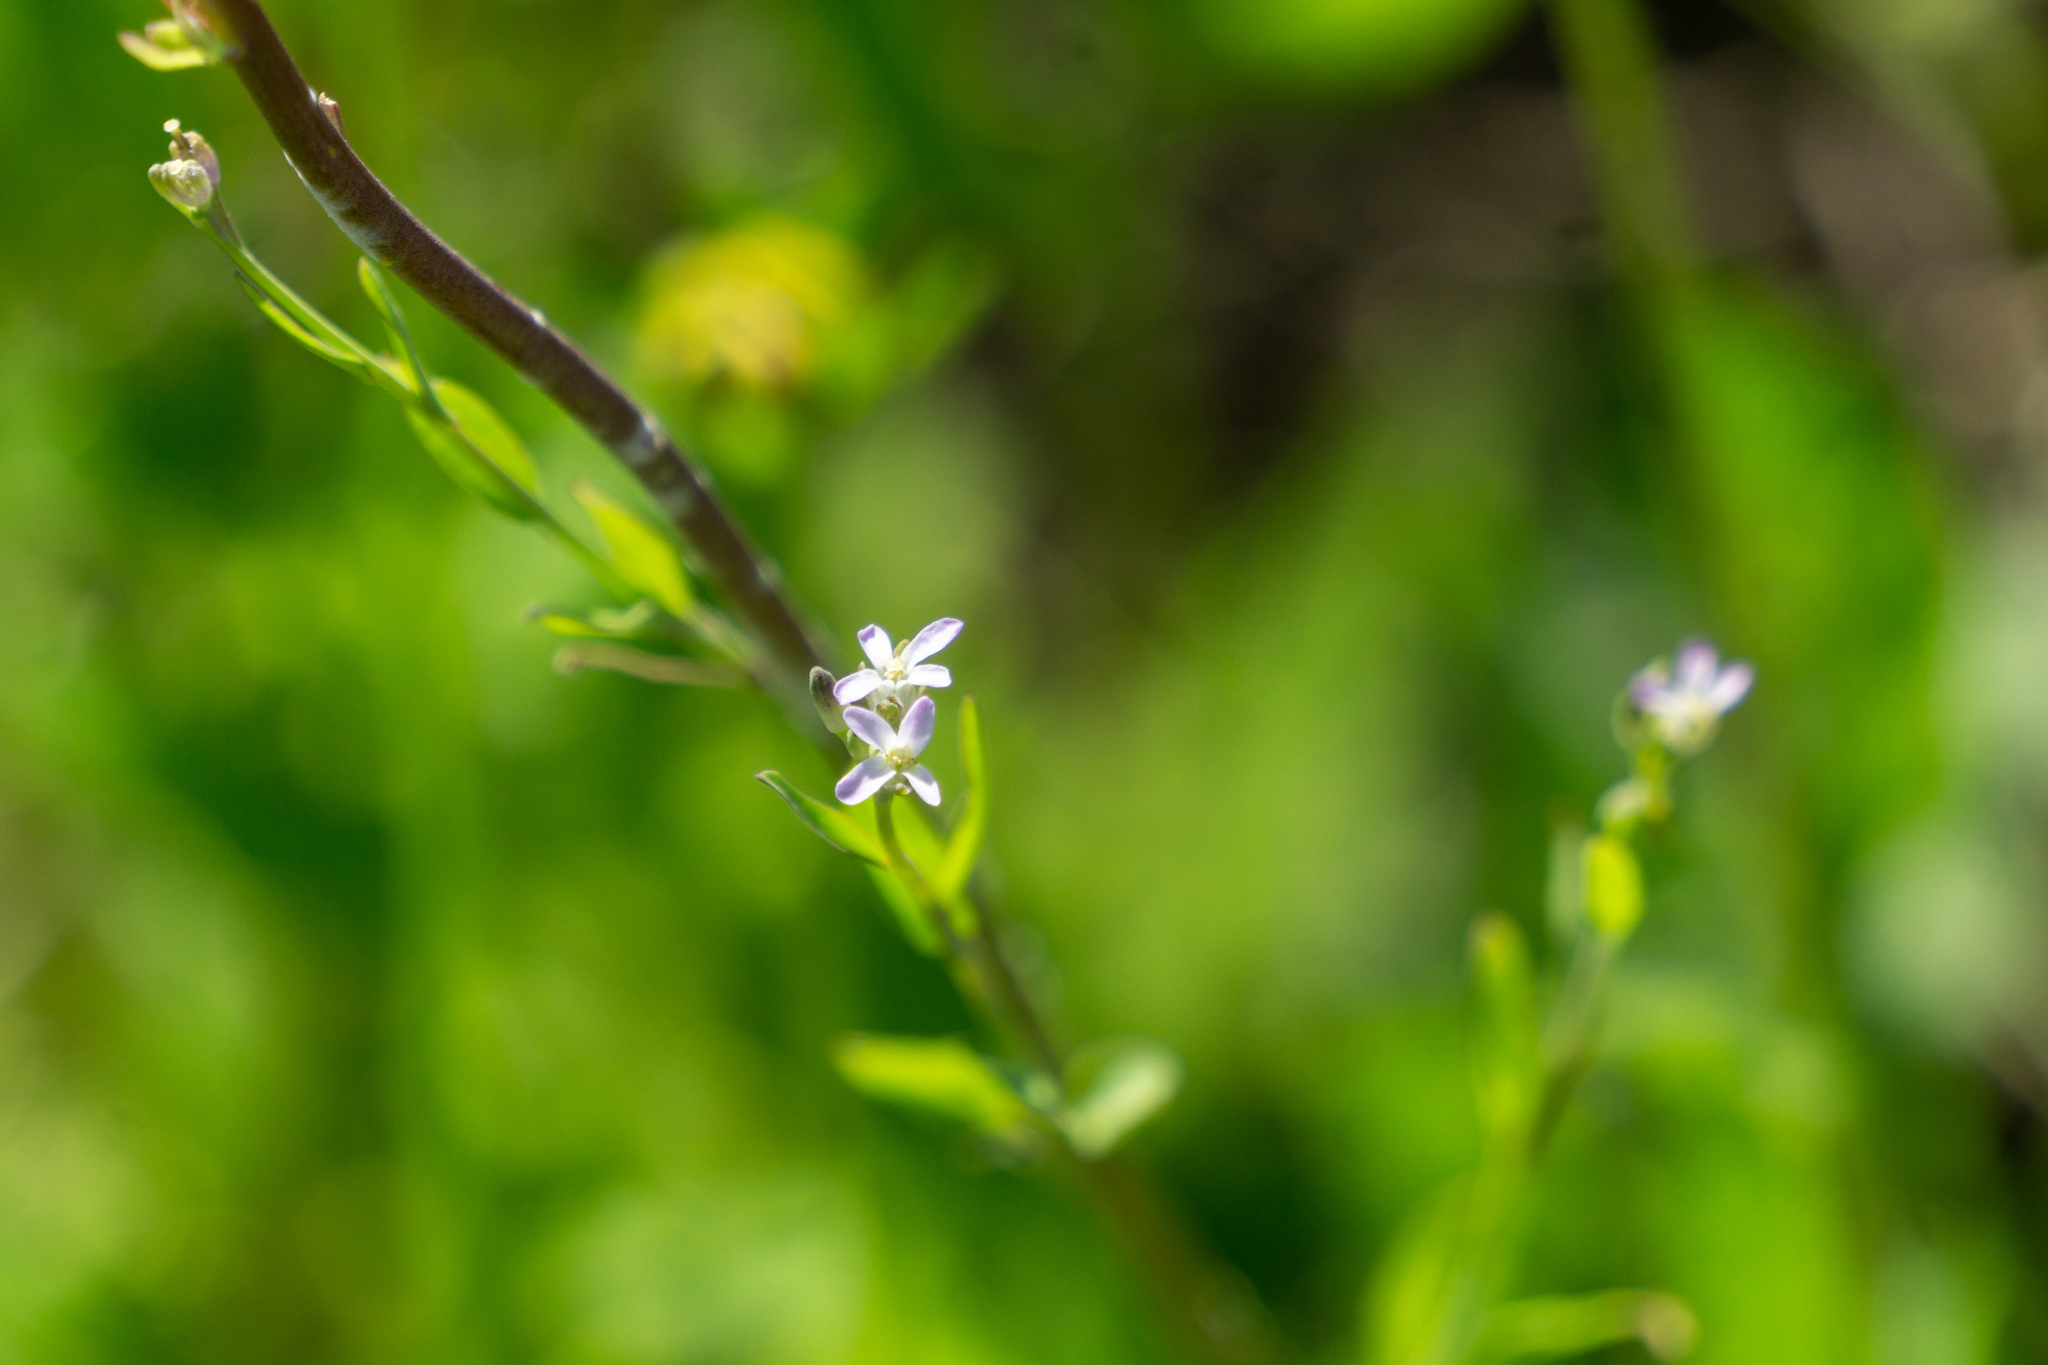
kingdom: Plantae
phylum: Tracheophyta
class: Magnoliopsida
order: Brassicales
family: Brassicaceae
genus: Streptanthus
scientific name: Streptanthus petiolaris
